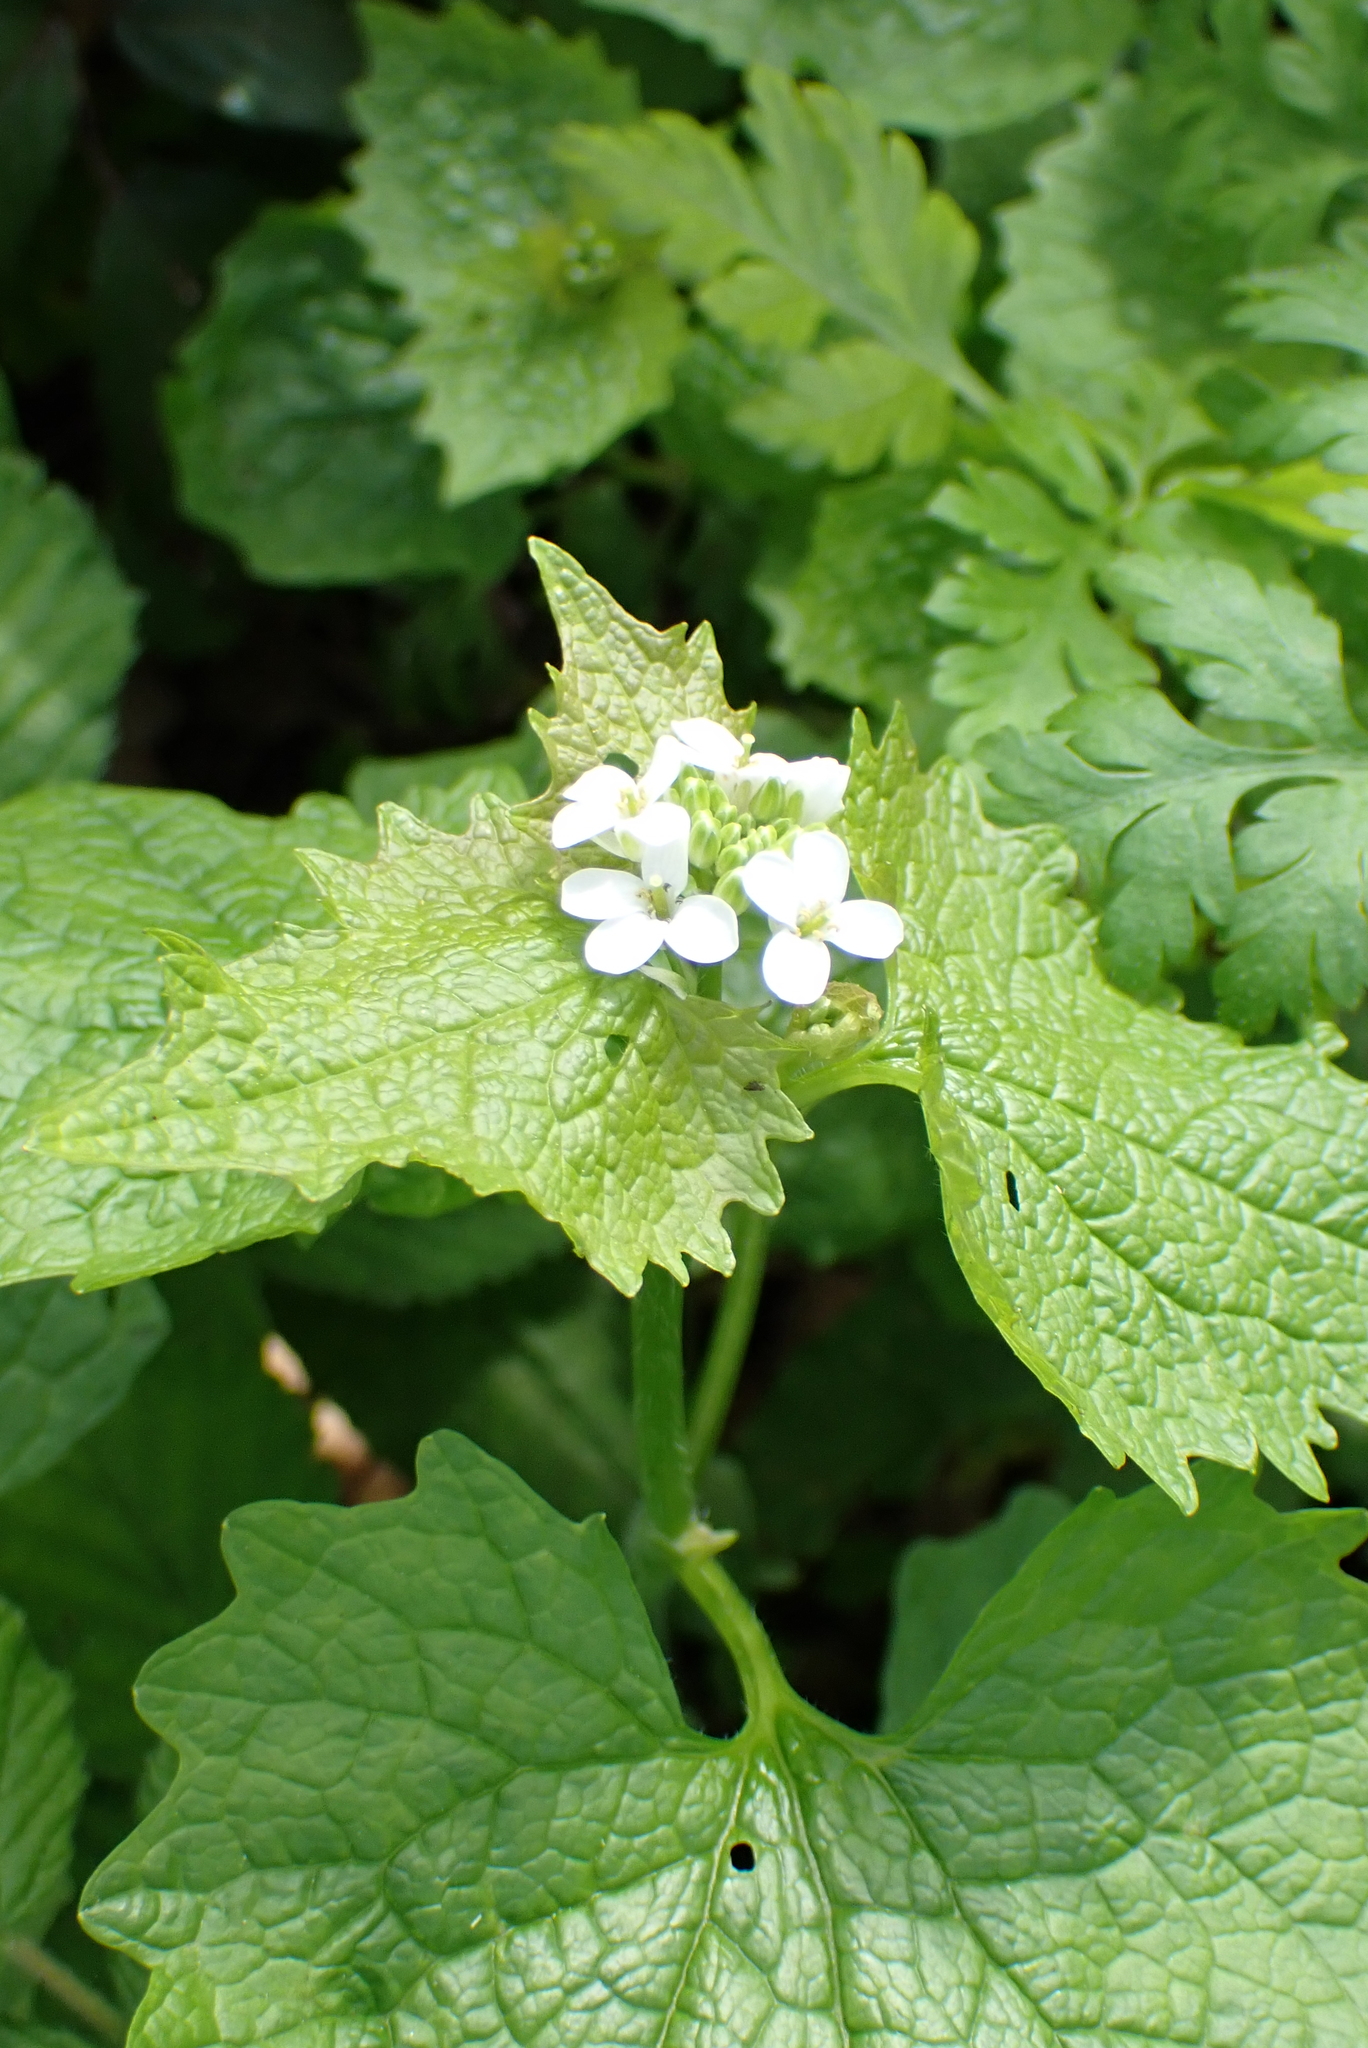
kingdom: Plantae
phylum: Tracheophyta
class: Magnoliopsida
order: Brassicales
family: Brassicaceae
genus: Alliaria
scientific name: Alliaria petiolata
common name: Garlic mustard
